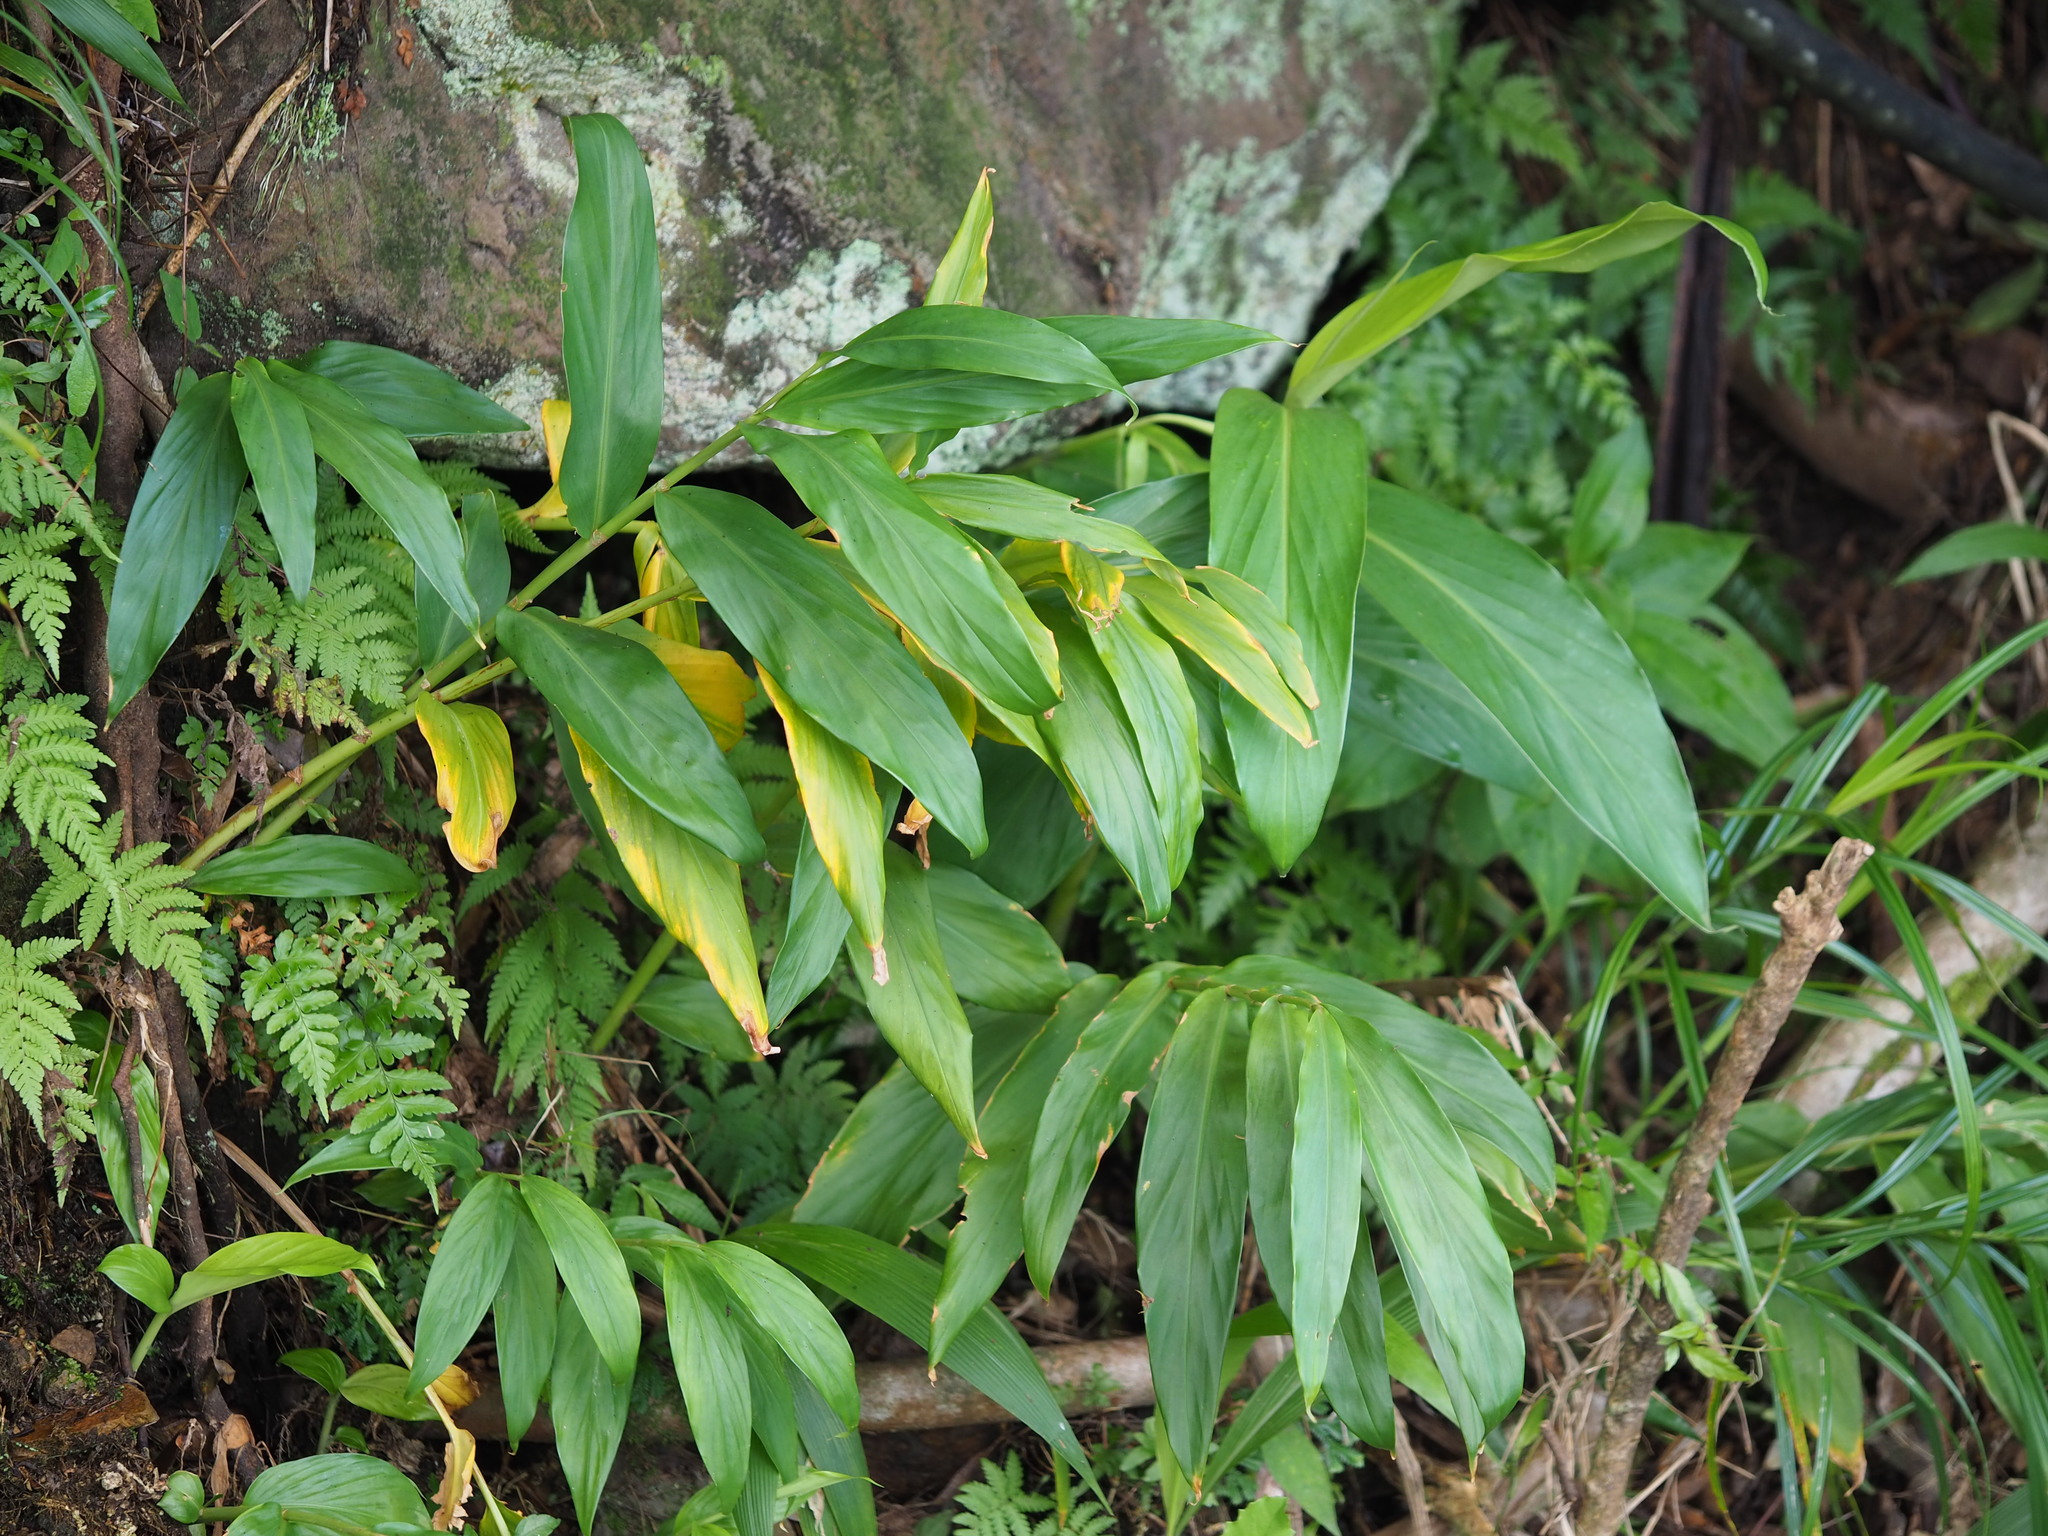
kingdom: Plantae
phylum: Tracheophyta
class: Liliopsida
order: Zingiberales
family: Zingiberaceae
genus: Zingiber
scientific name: Zingiber kawagoii
